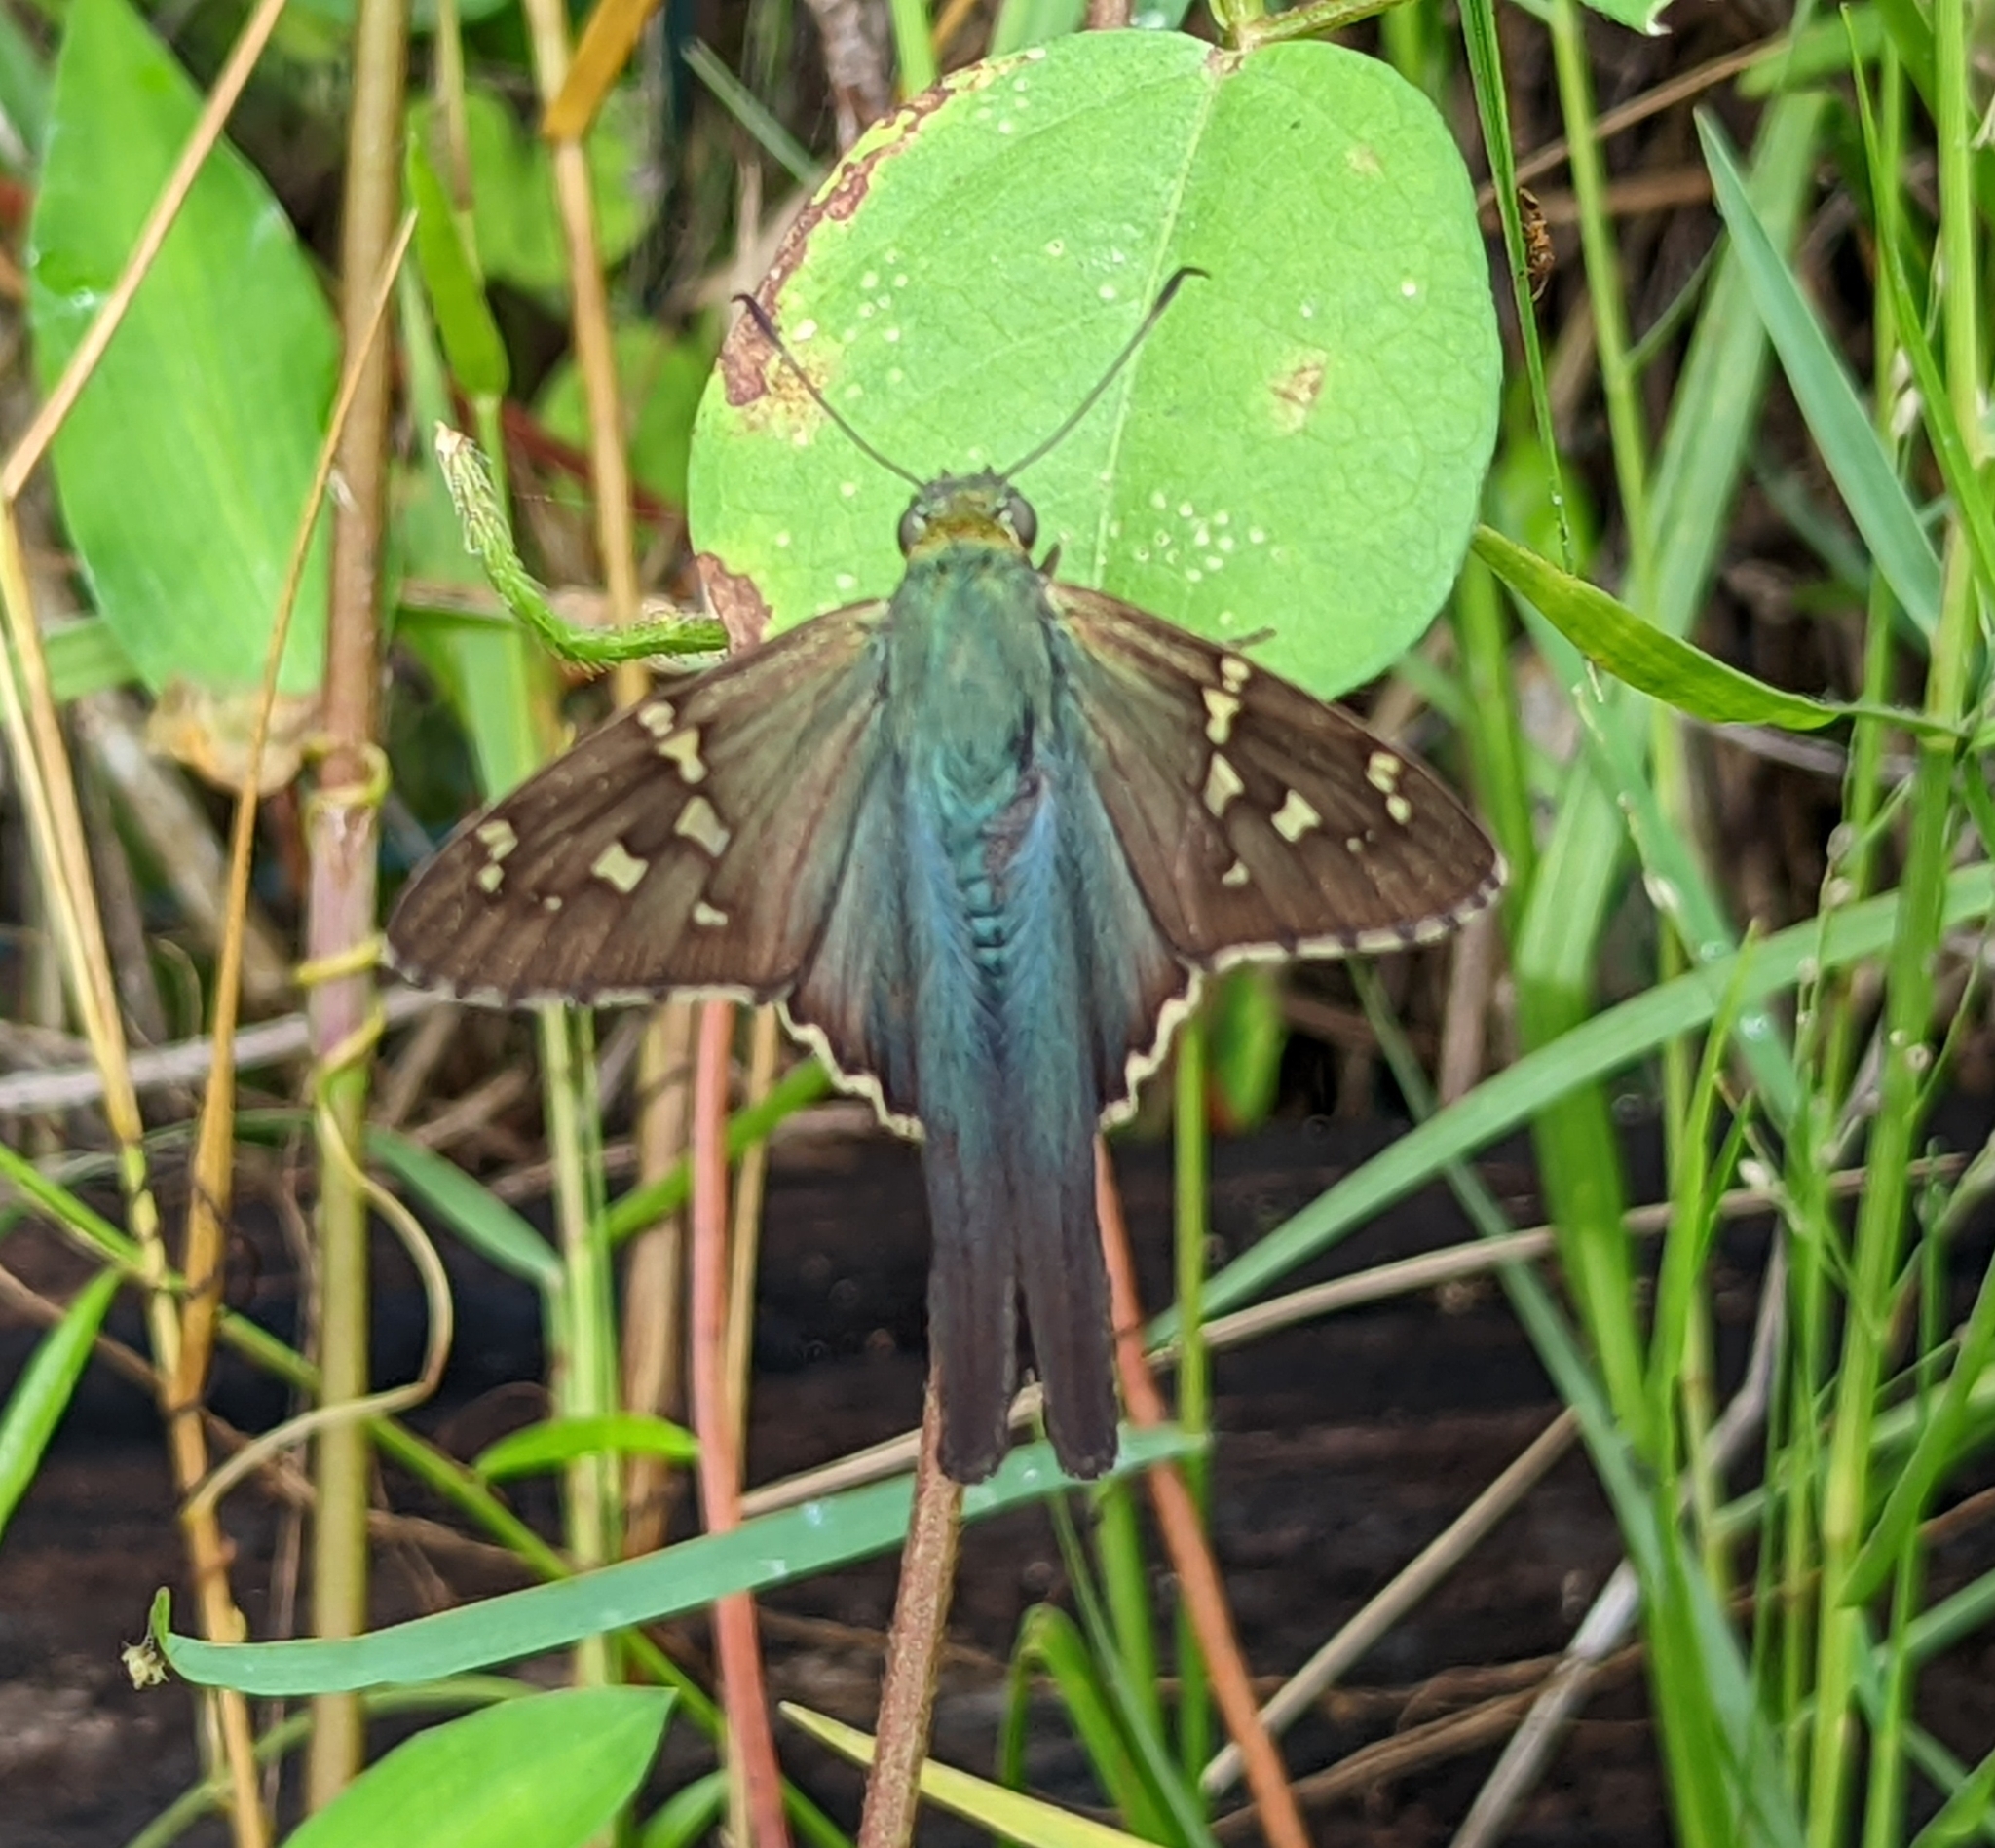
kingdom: Animalia
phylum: Arthropoda
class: Insecta
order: Lepidoptera
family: Hesperiidae
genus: Urbanus
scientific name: Urbanus proteus
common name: Long-tailed skipper
